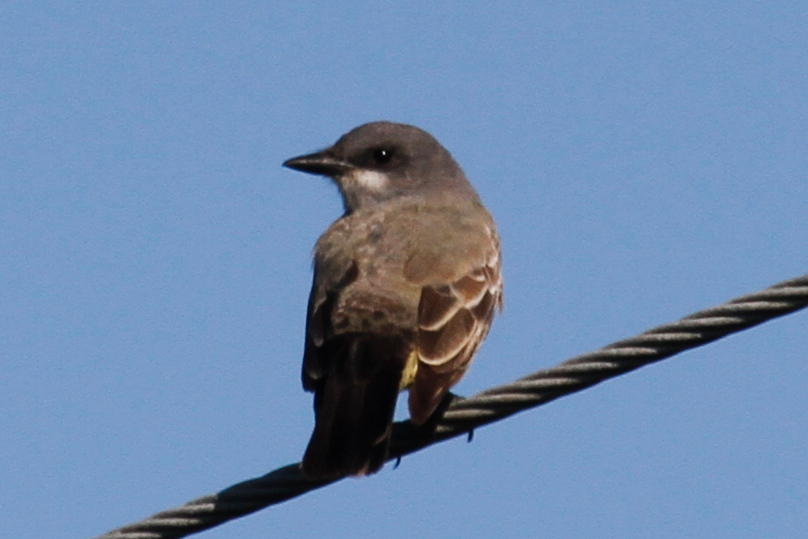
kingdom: Animalia
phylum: Chordata
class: Aves
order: Passeriformes
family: Tyrannidae
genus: Tyrannus
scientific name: Tyrannus vociferans
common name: Cassin's kingbird
